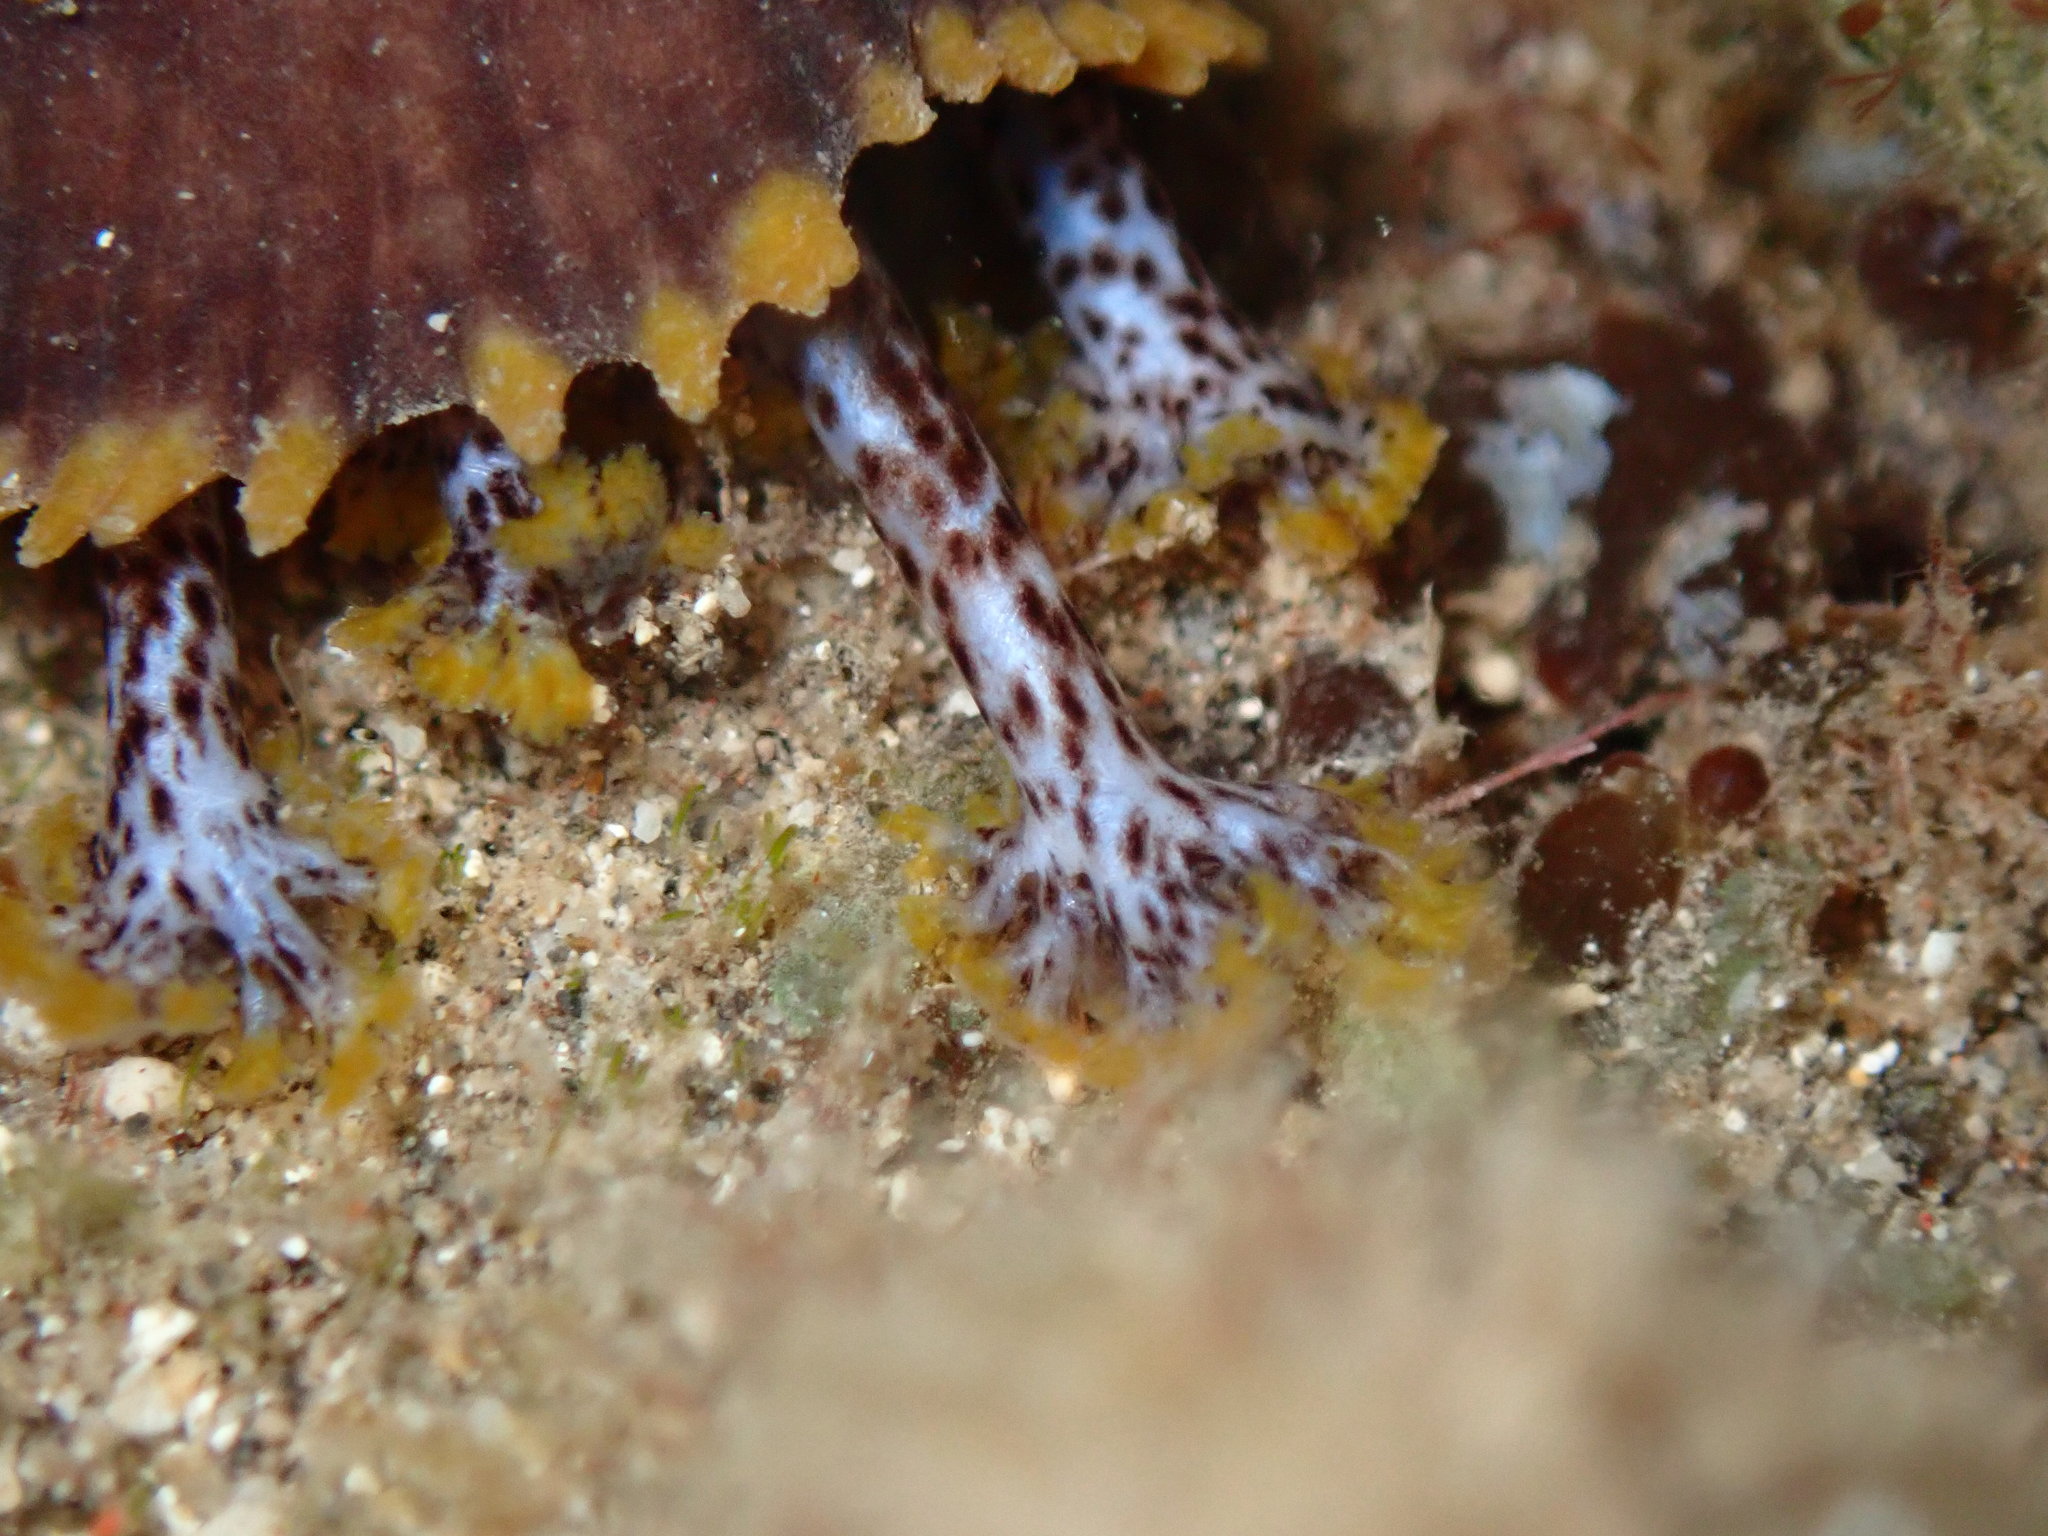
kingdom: Animalia
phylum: Echinodermata
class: Holothuroidea
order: Holothuriida
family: Holothuriidae
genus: Holothuria
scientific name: Holothuria flavomaculata
